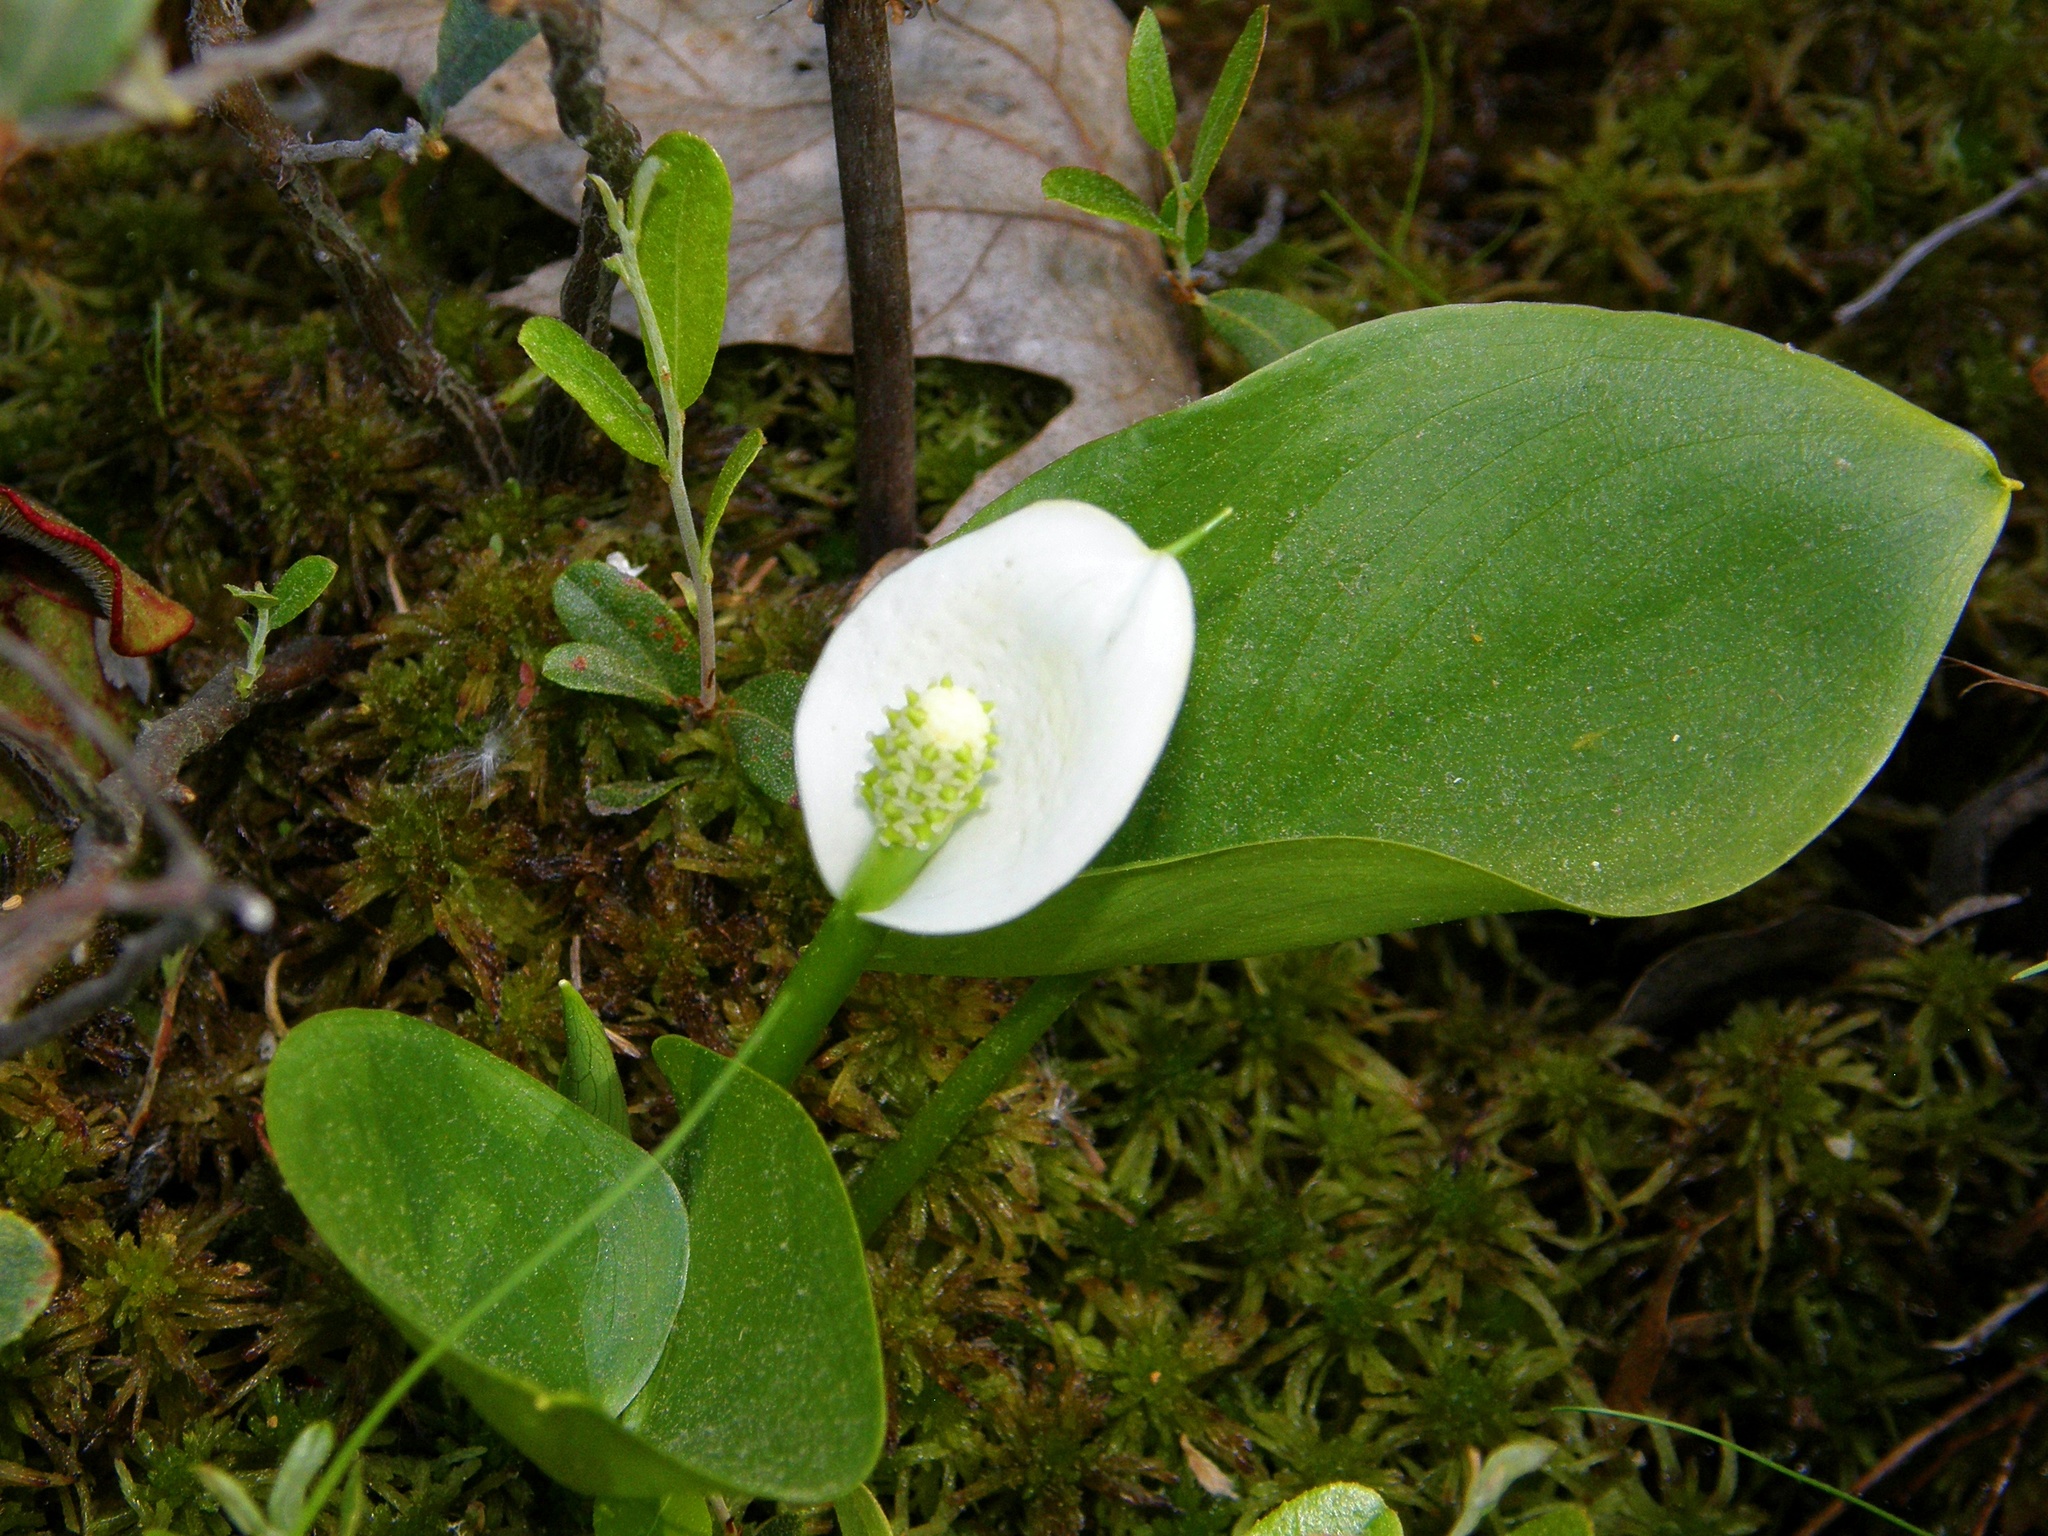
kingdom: Plantae
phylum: Tracheophyta
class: Liliopsida
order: Alismatales
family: Araceae
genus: Calla
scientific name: Calla palustris
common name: Bog arum
